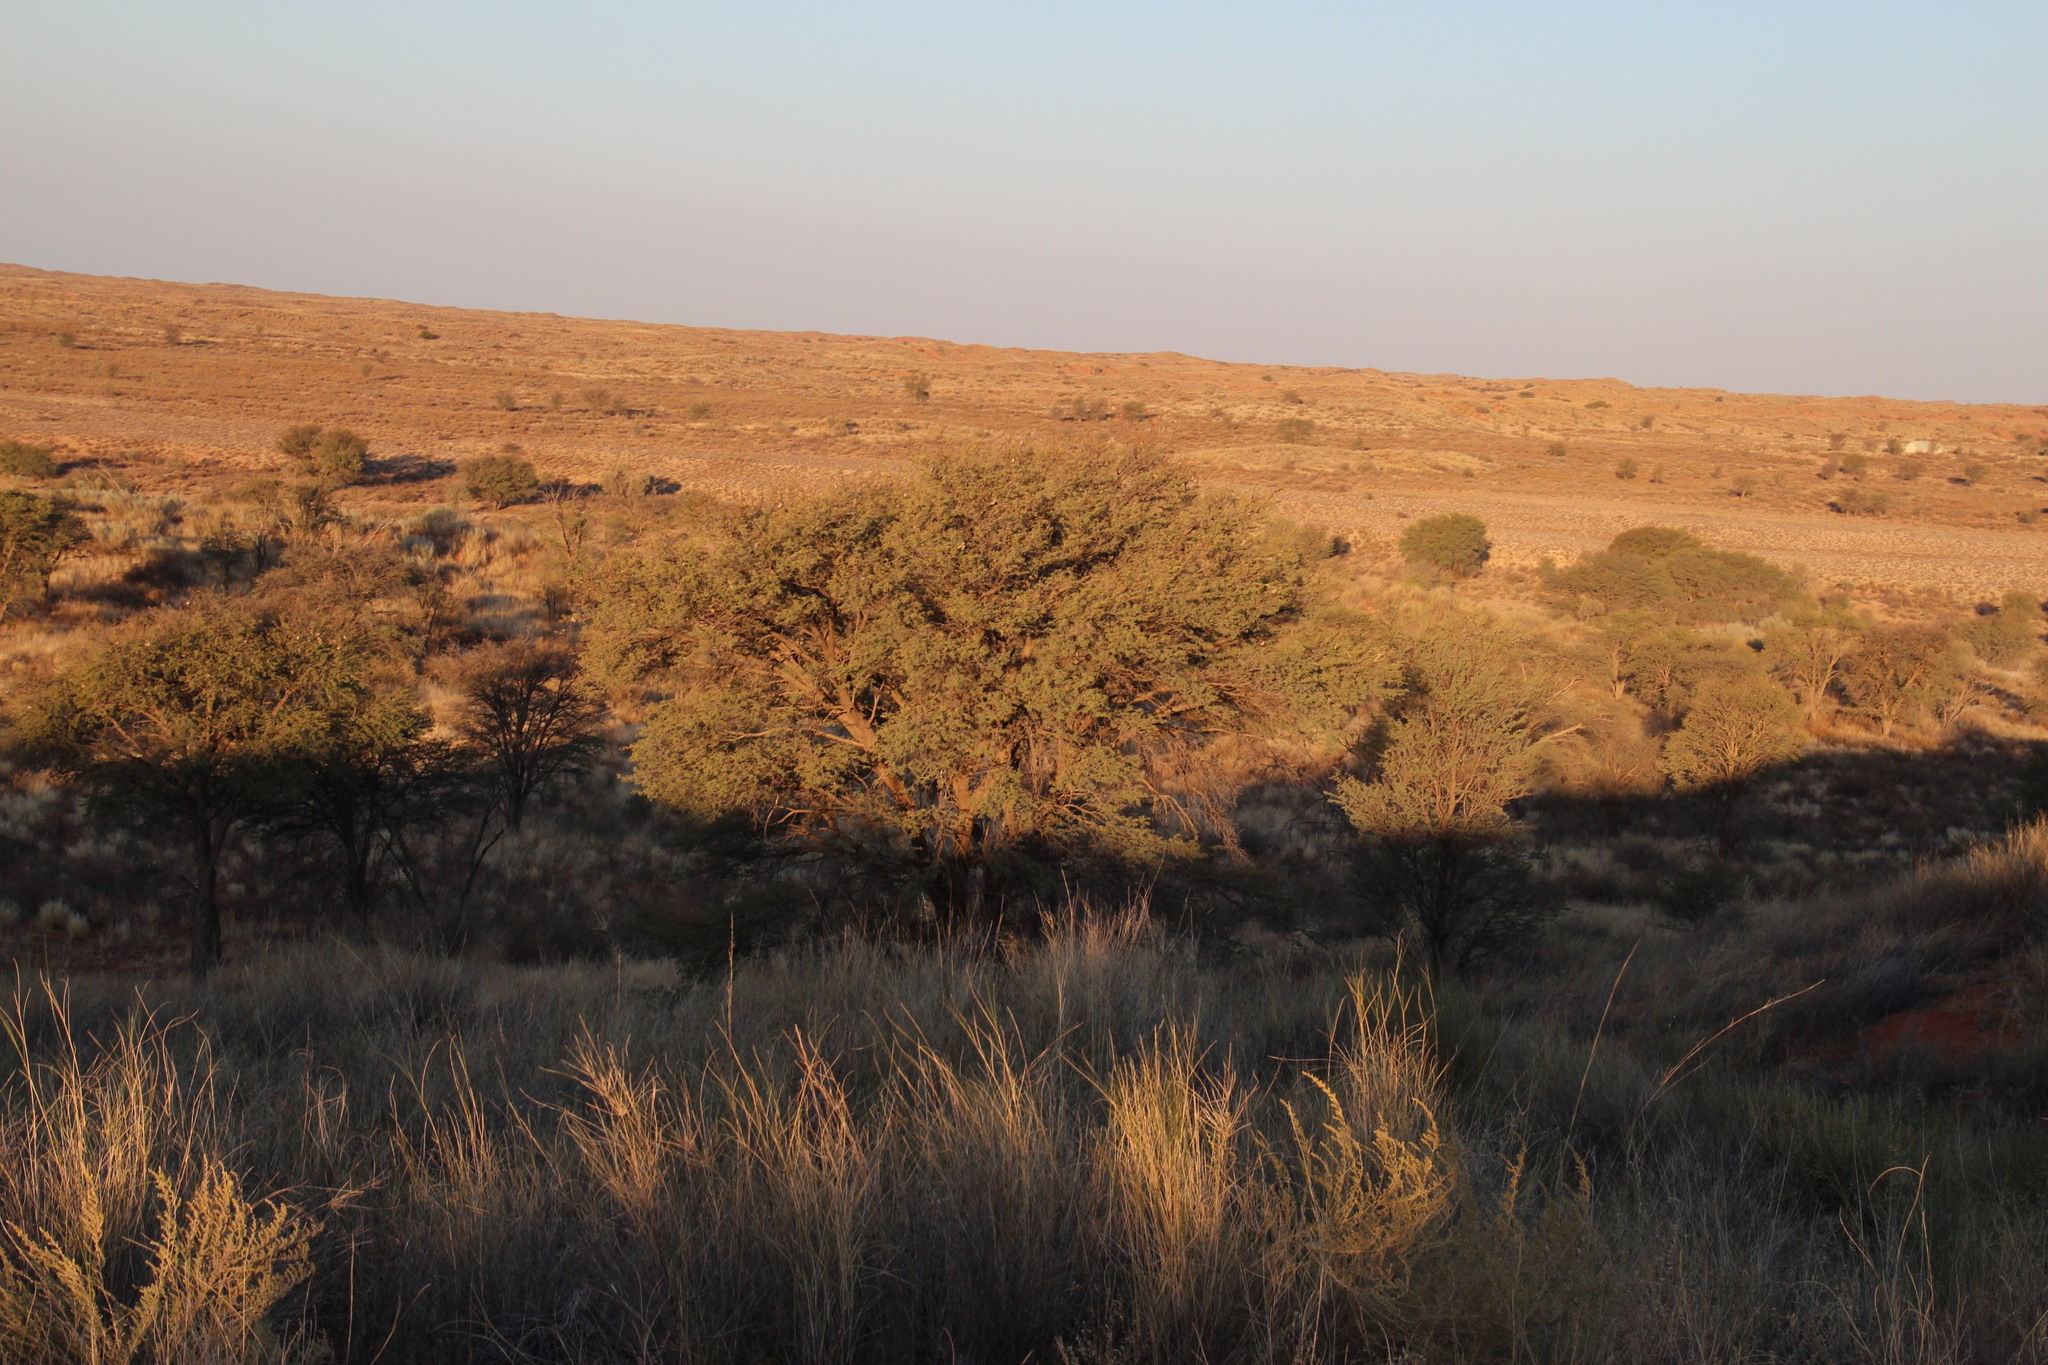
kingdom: Plantae
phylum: Tracheophyta
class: Magnoliopsida
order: Fabales
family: Fabaceae
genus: Vachellia
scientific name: Vachellia erioloba
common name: Camel thorn
